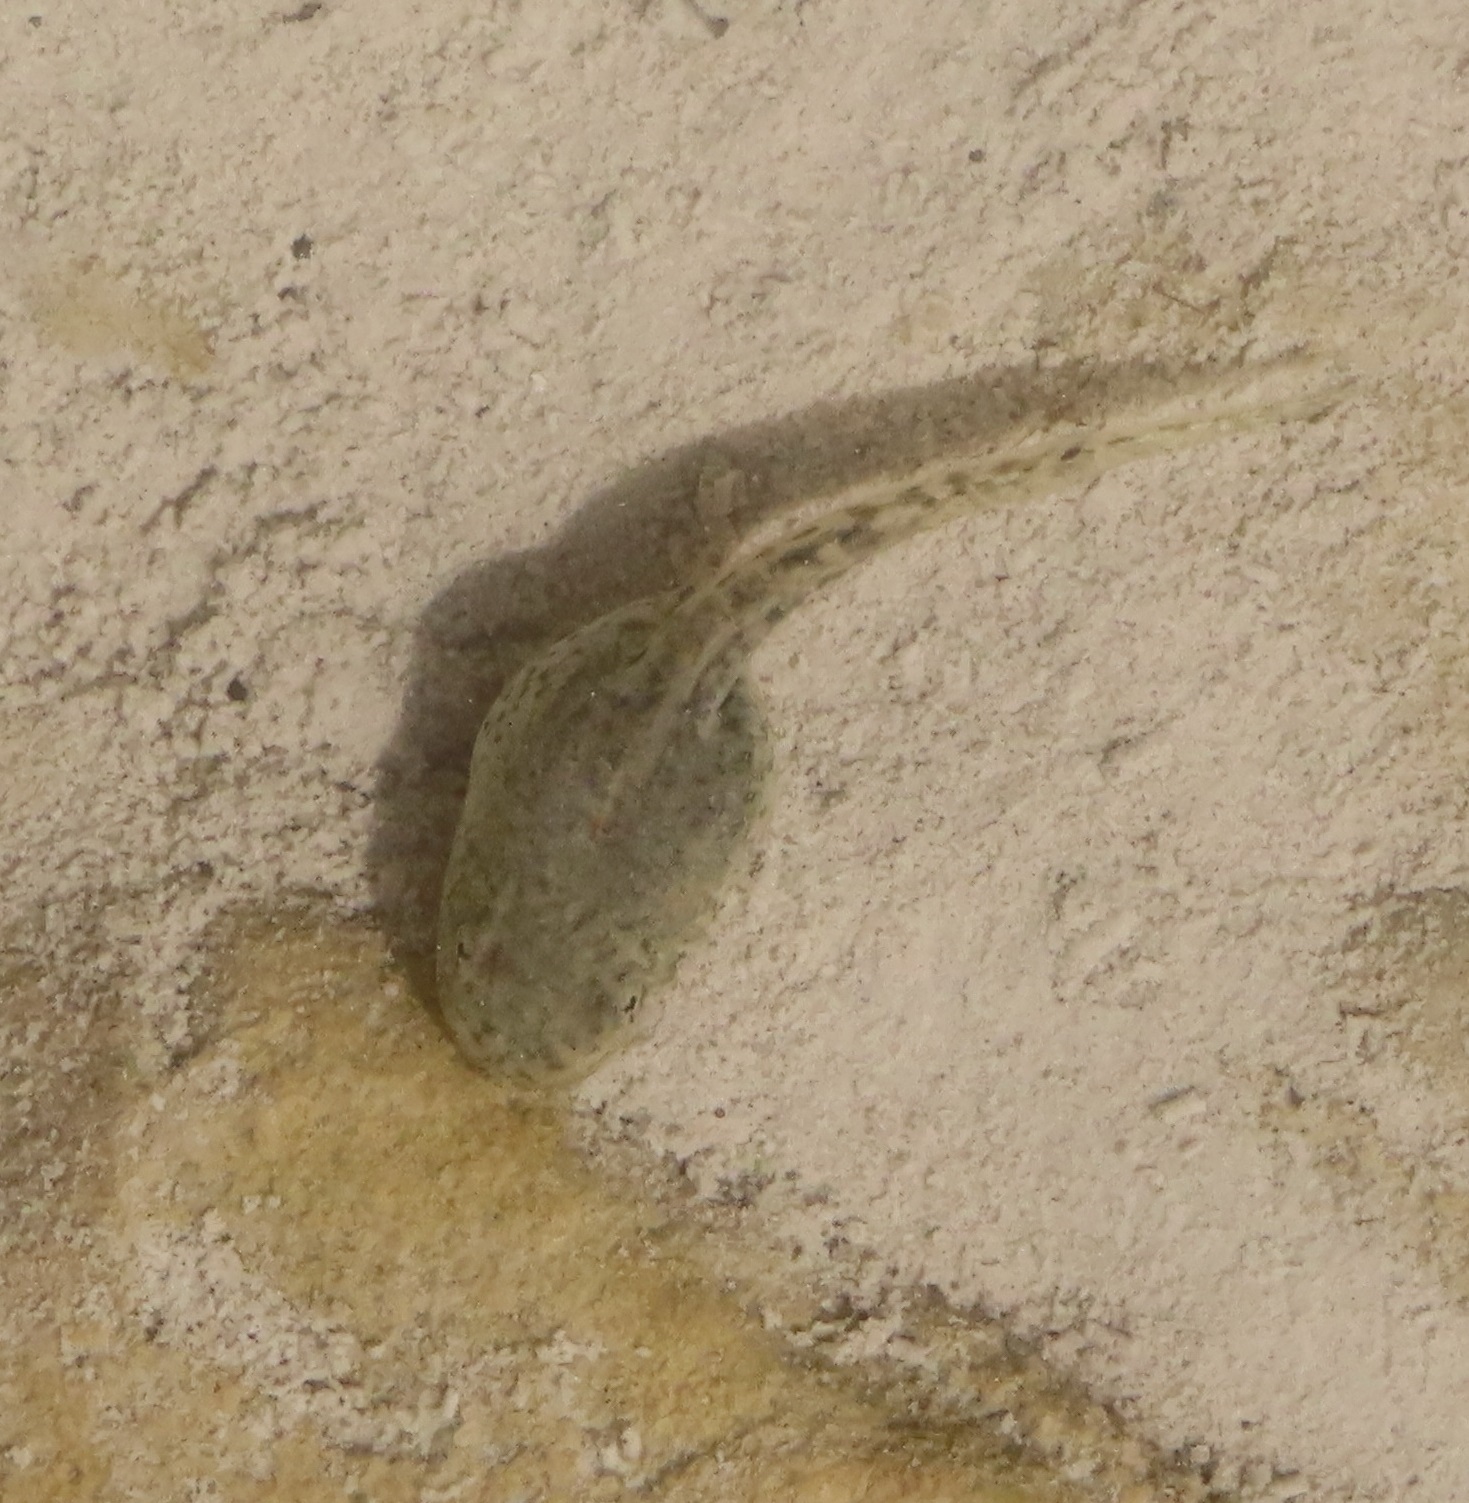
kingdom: Animalia
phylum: Chordata
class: Amphibia
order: Anura
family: Ranidae
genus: Pelophylax
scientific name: Pelophylax ridibundus
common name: Marsh frog
